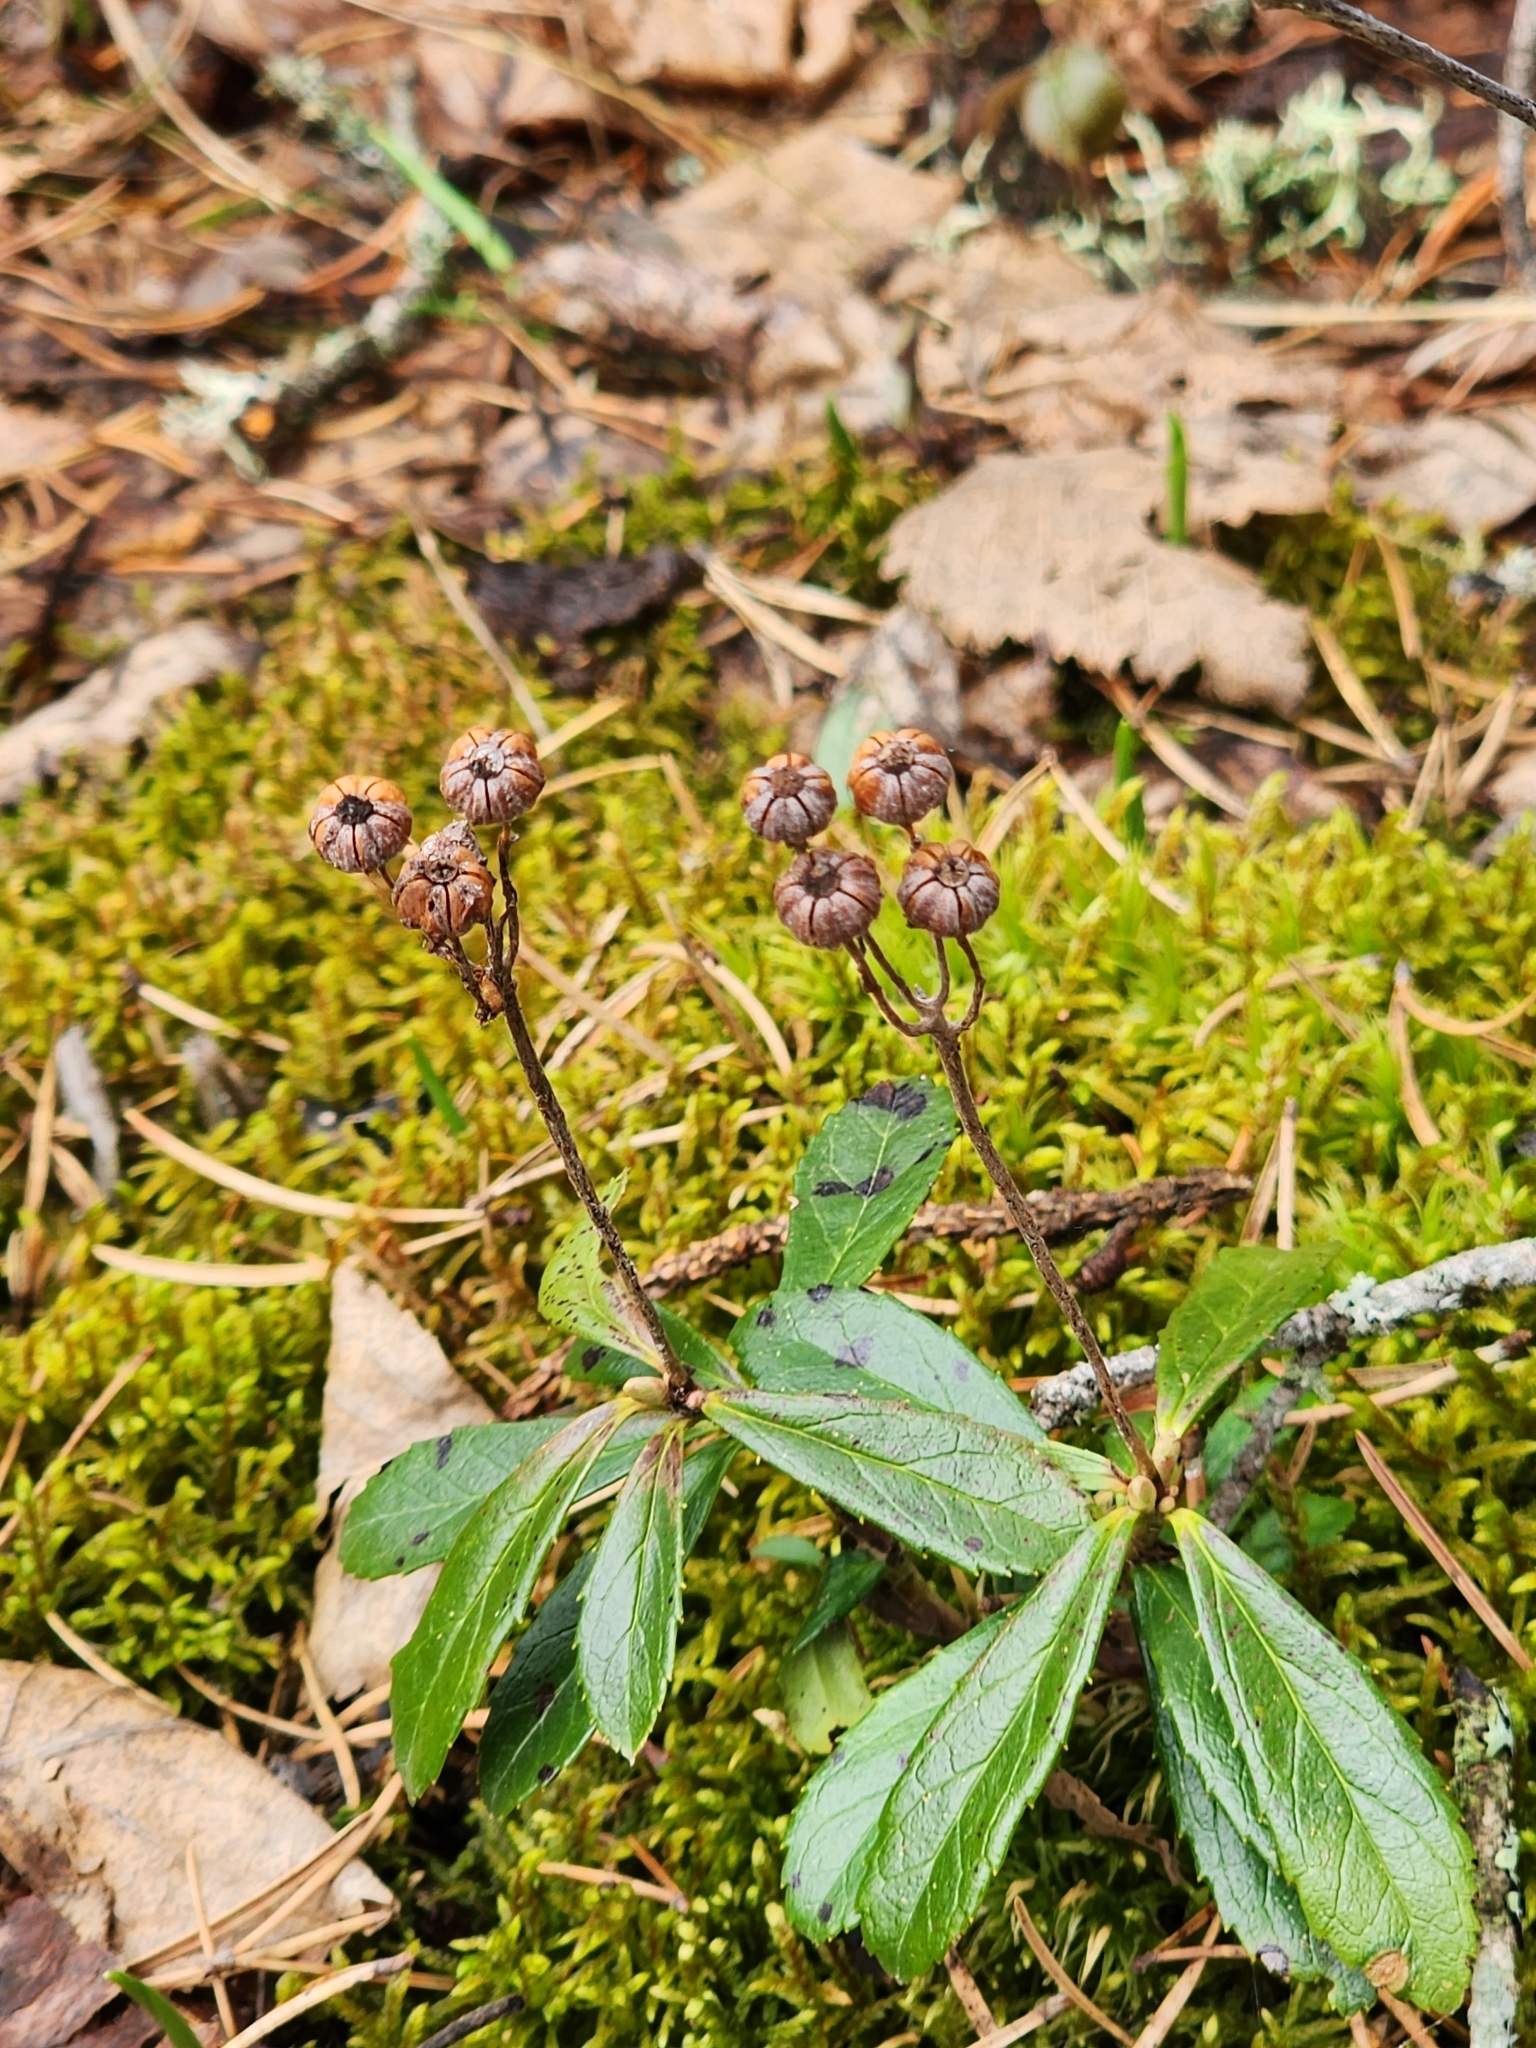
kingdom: Plantae
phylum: Tracheophyta
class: Magnoliopsida
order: Ericales
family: Ericaceae
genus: Chimaphila
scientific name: Chimaphila umbellata
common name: Pipsissewa
